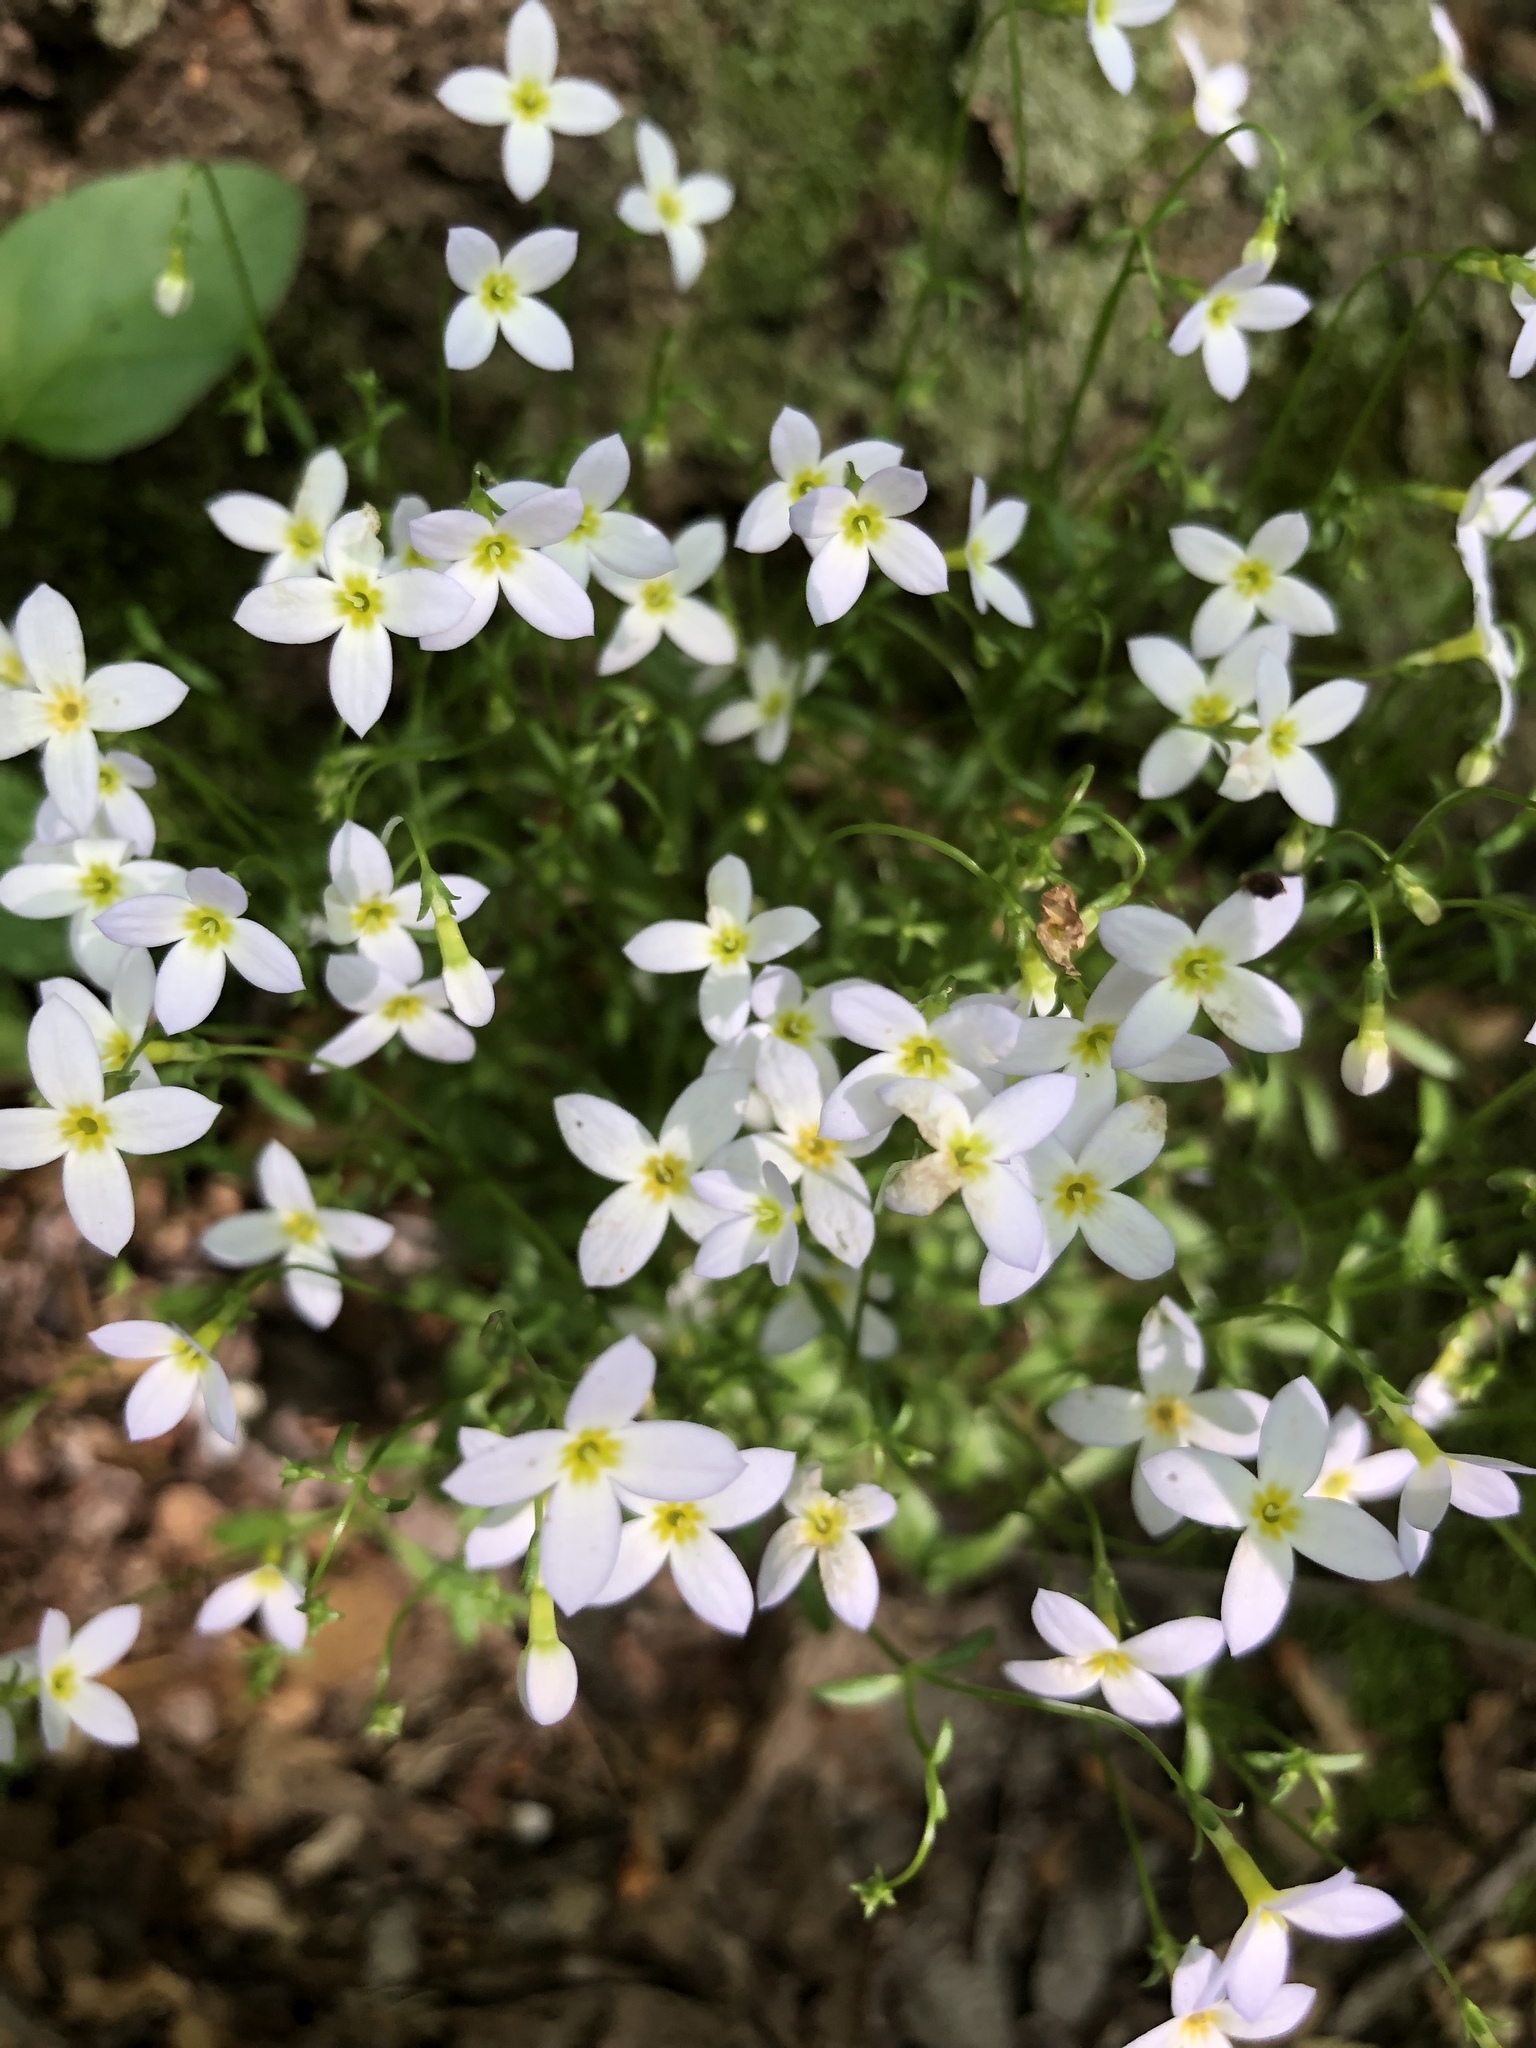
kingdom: Plantae
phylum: Tracheophyta
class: Magnoliopsida
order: Gentianales
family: Rubiaceae
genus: Houstonia
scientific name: Houstonia caerulea
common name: Bluets
